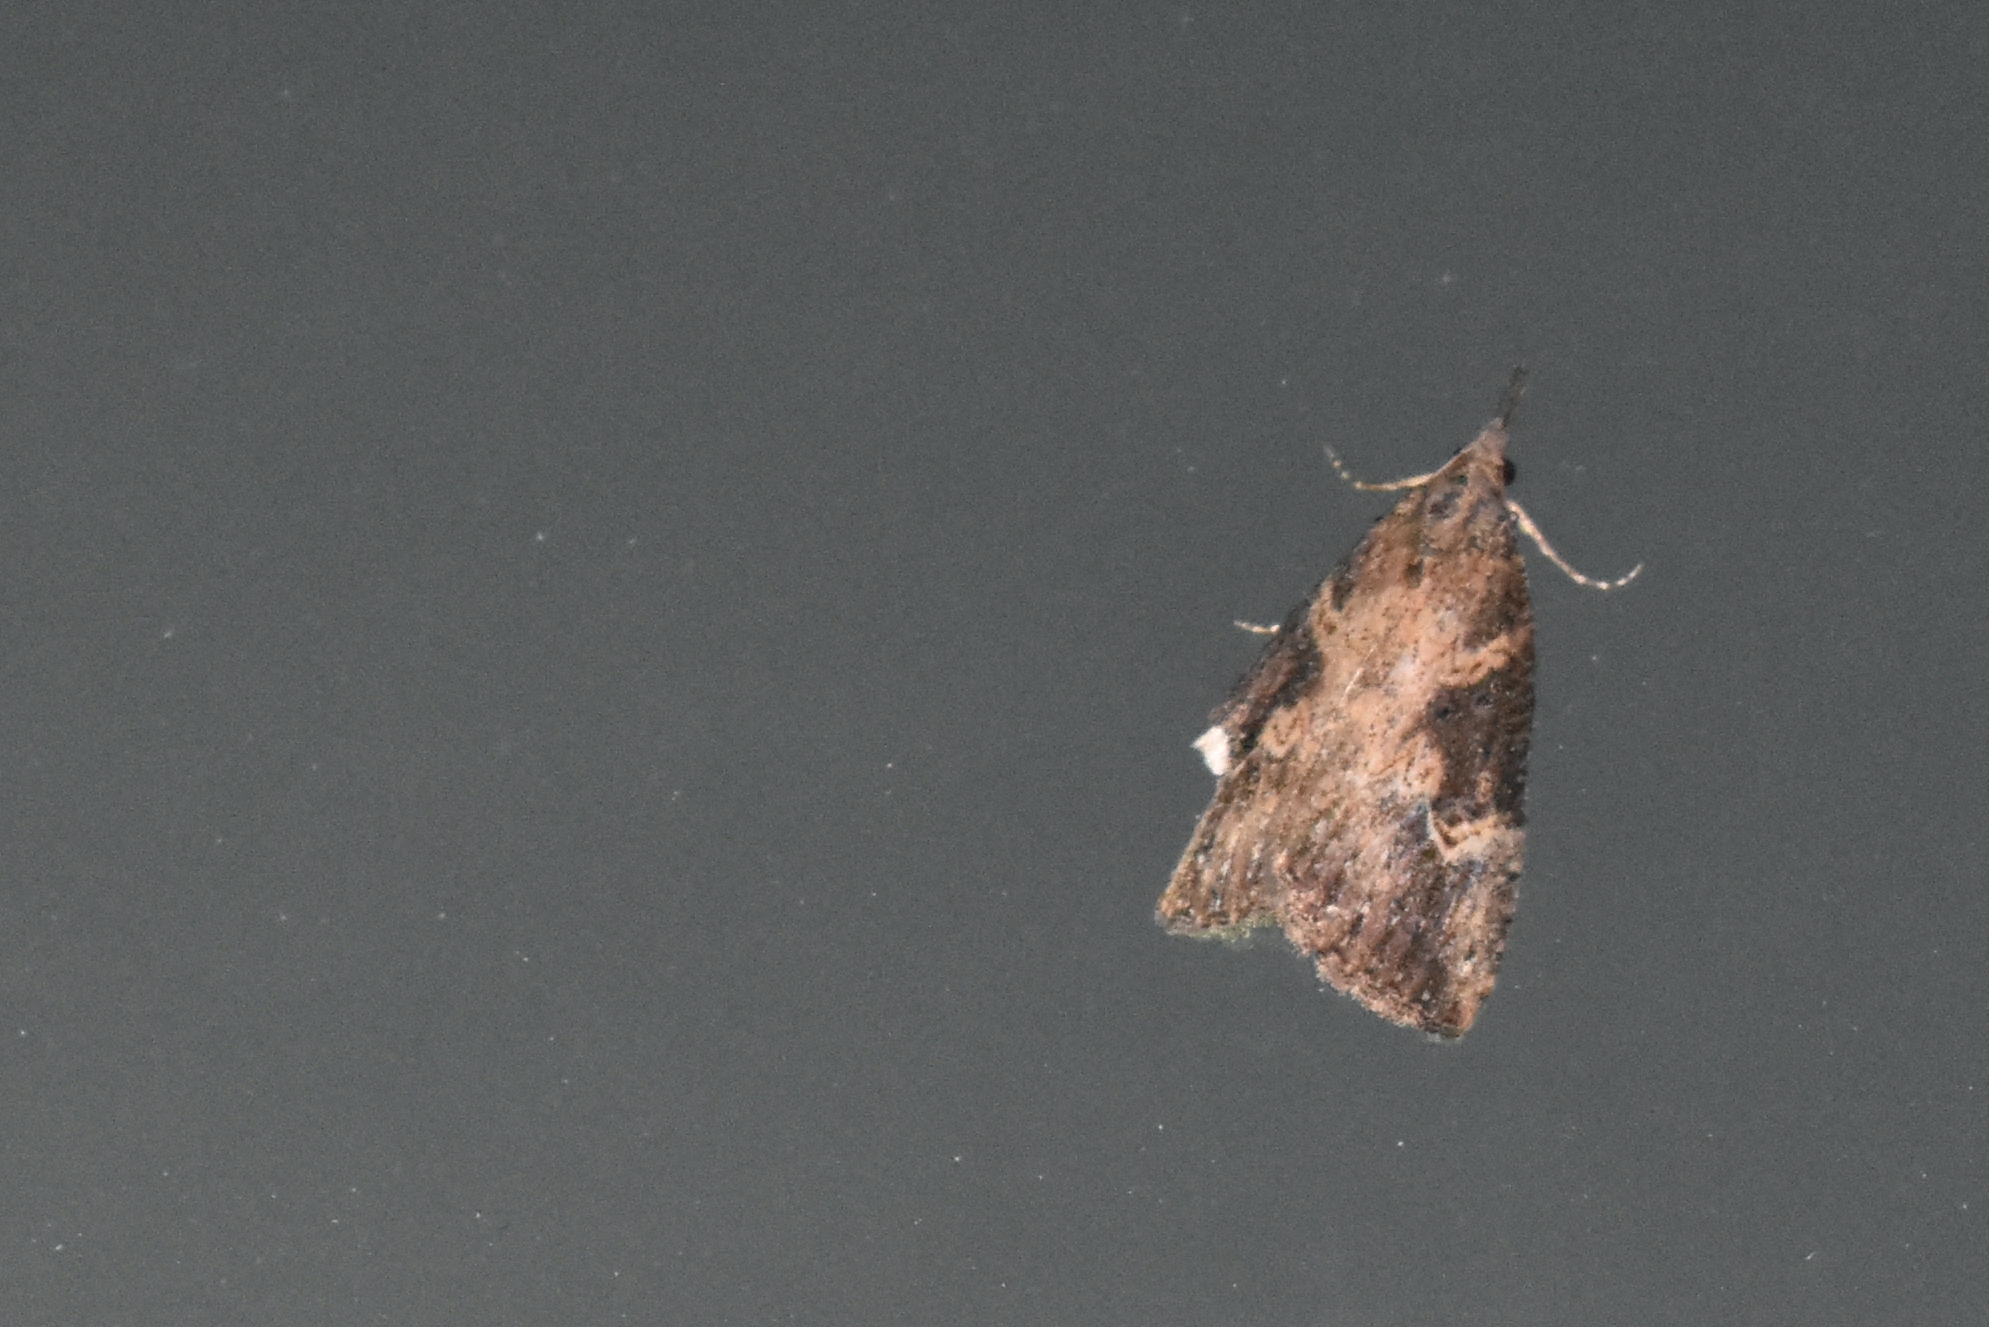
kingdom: Animalia
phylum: Arthropoda
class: Insecta
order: Lepidoptera
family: Erebidae
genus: Hypena
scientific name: Hypena humuli
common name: Hop vine snout
